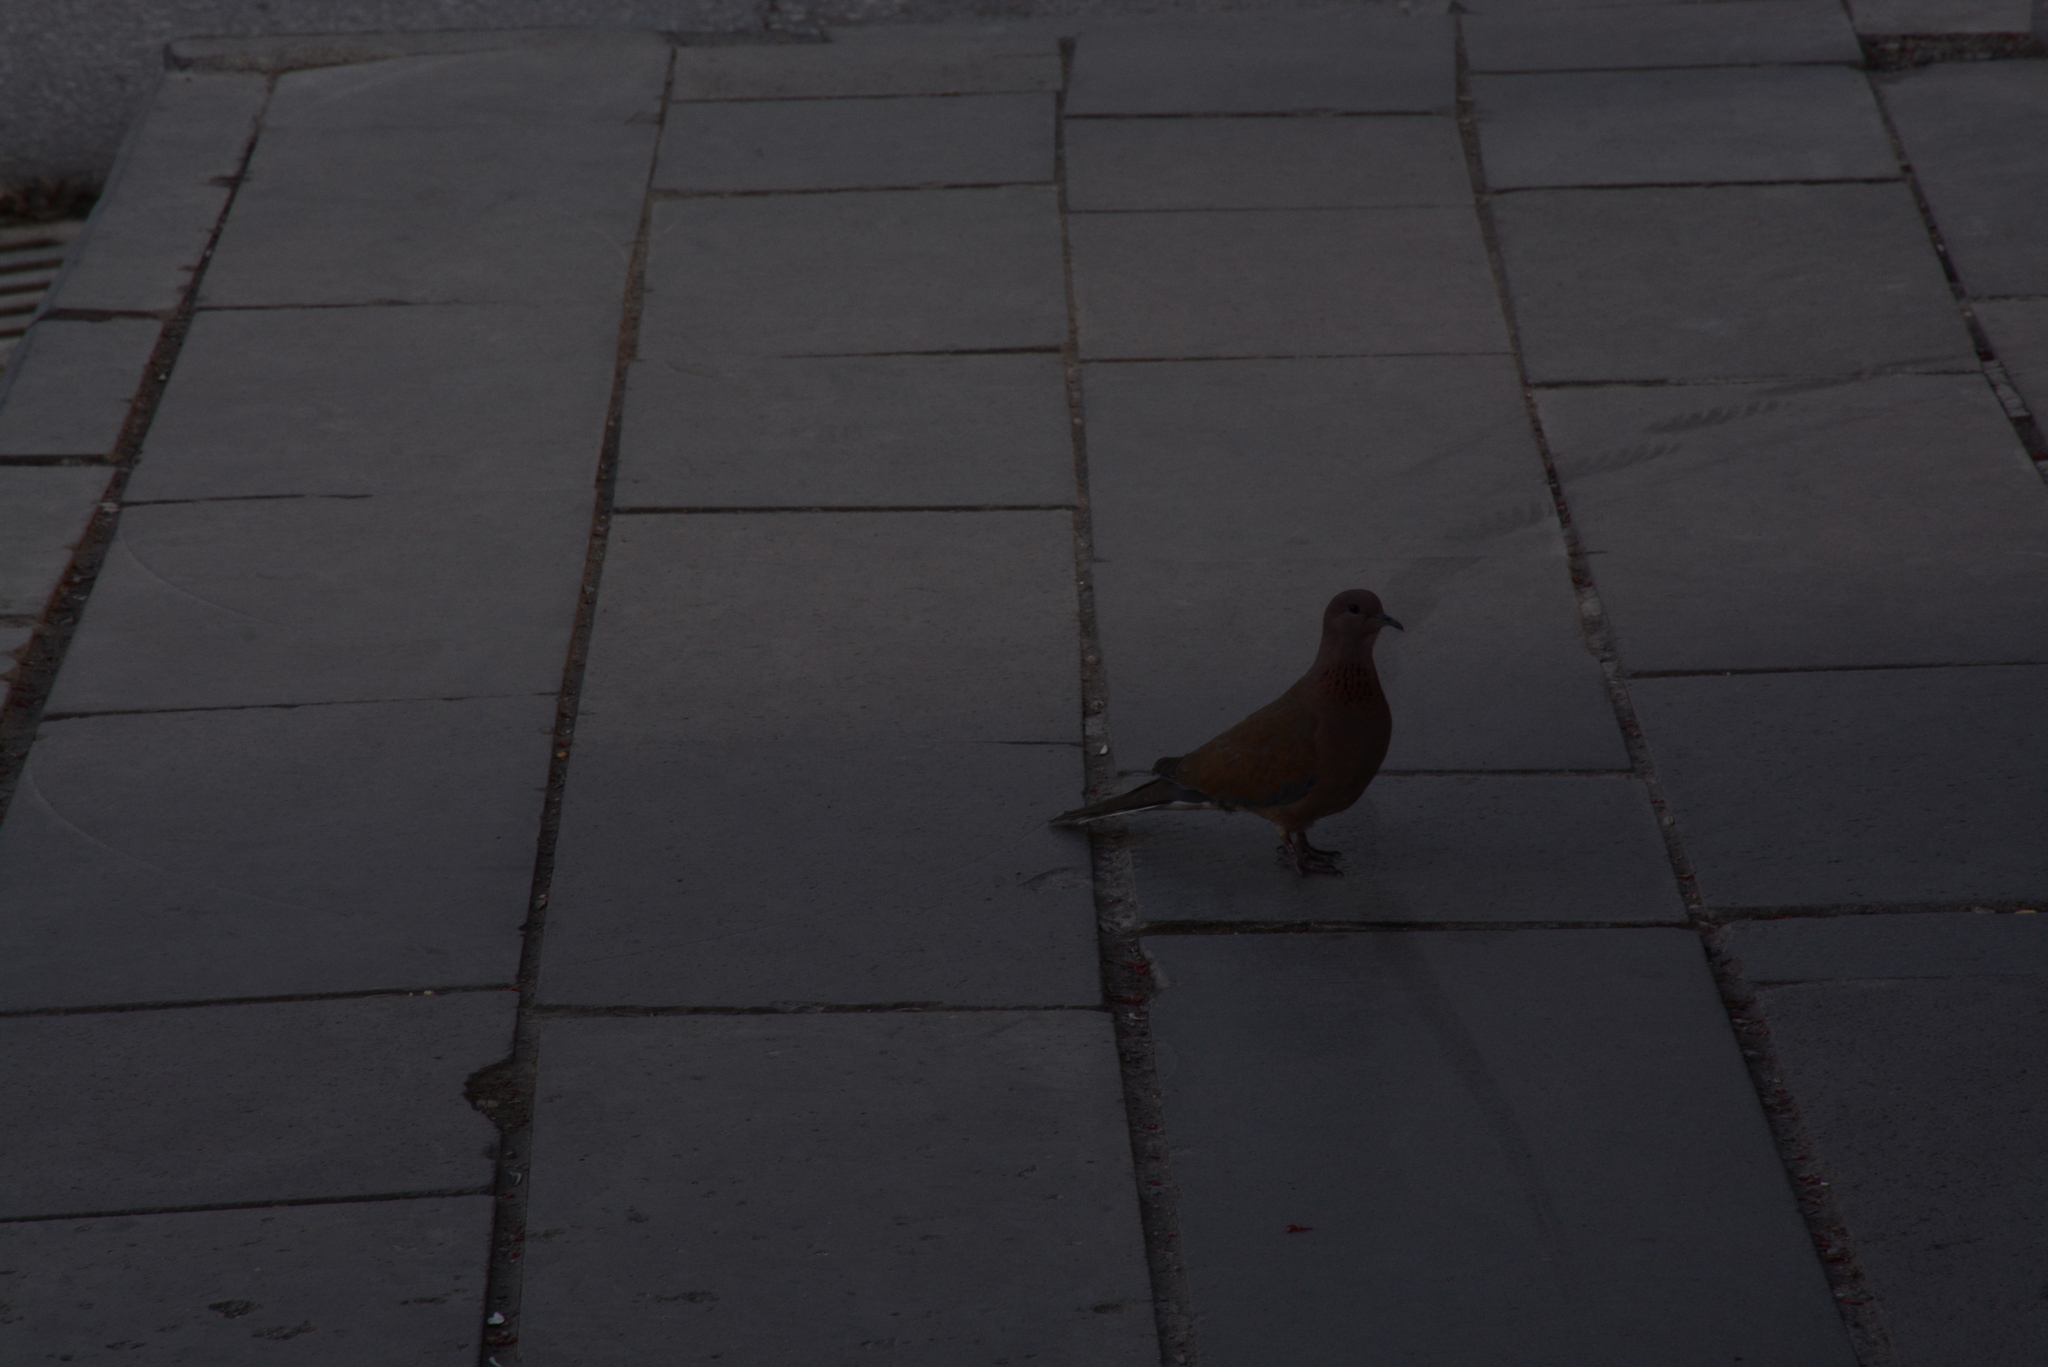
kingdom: Animalia
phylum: Chordata
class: Aves
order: Columbiformes
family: Columbidae
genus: Spilopelia
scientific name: Spilopelia senegalensis
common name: Laughing dove
